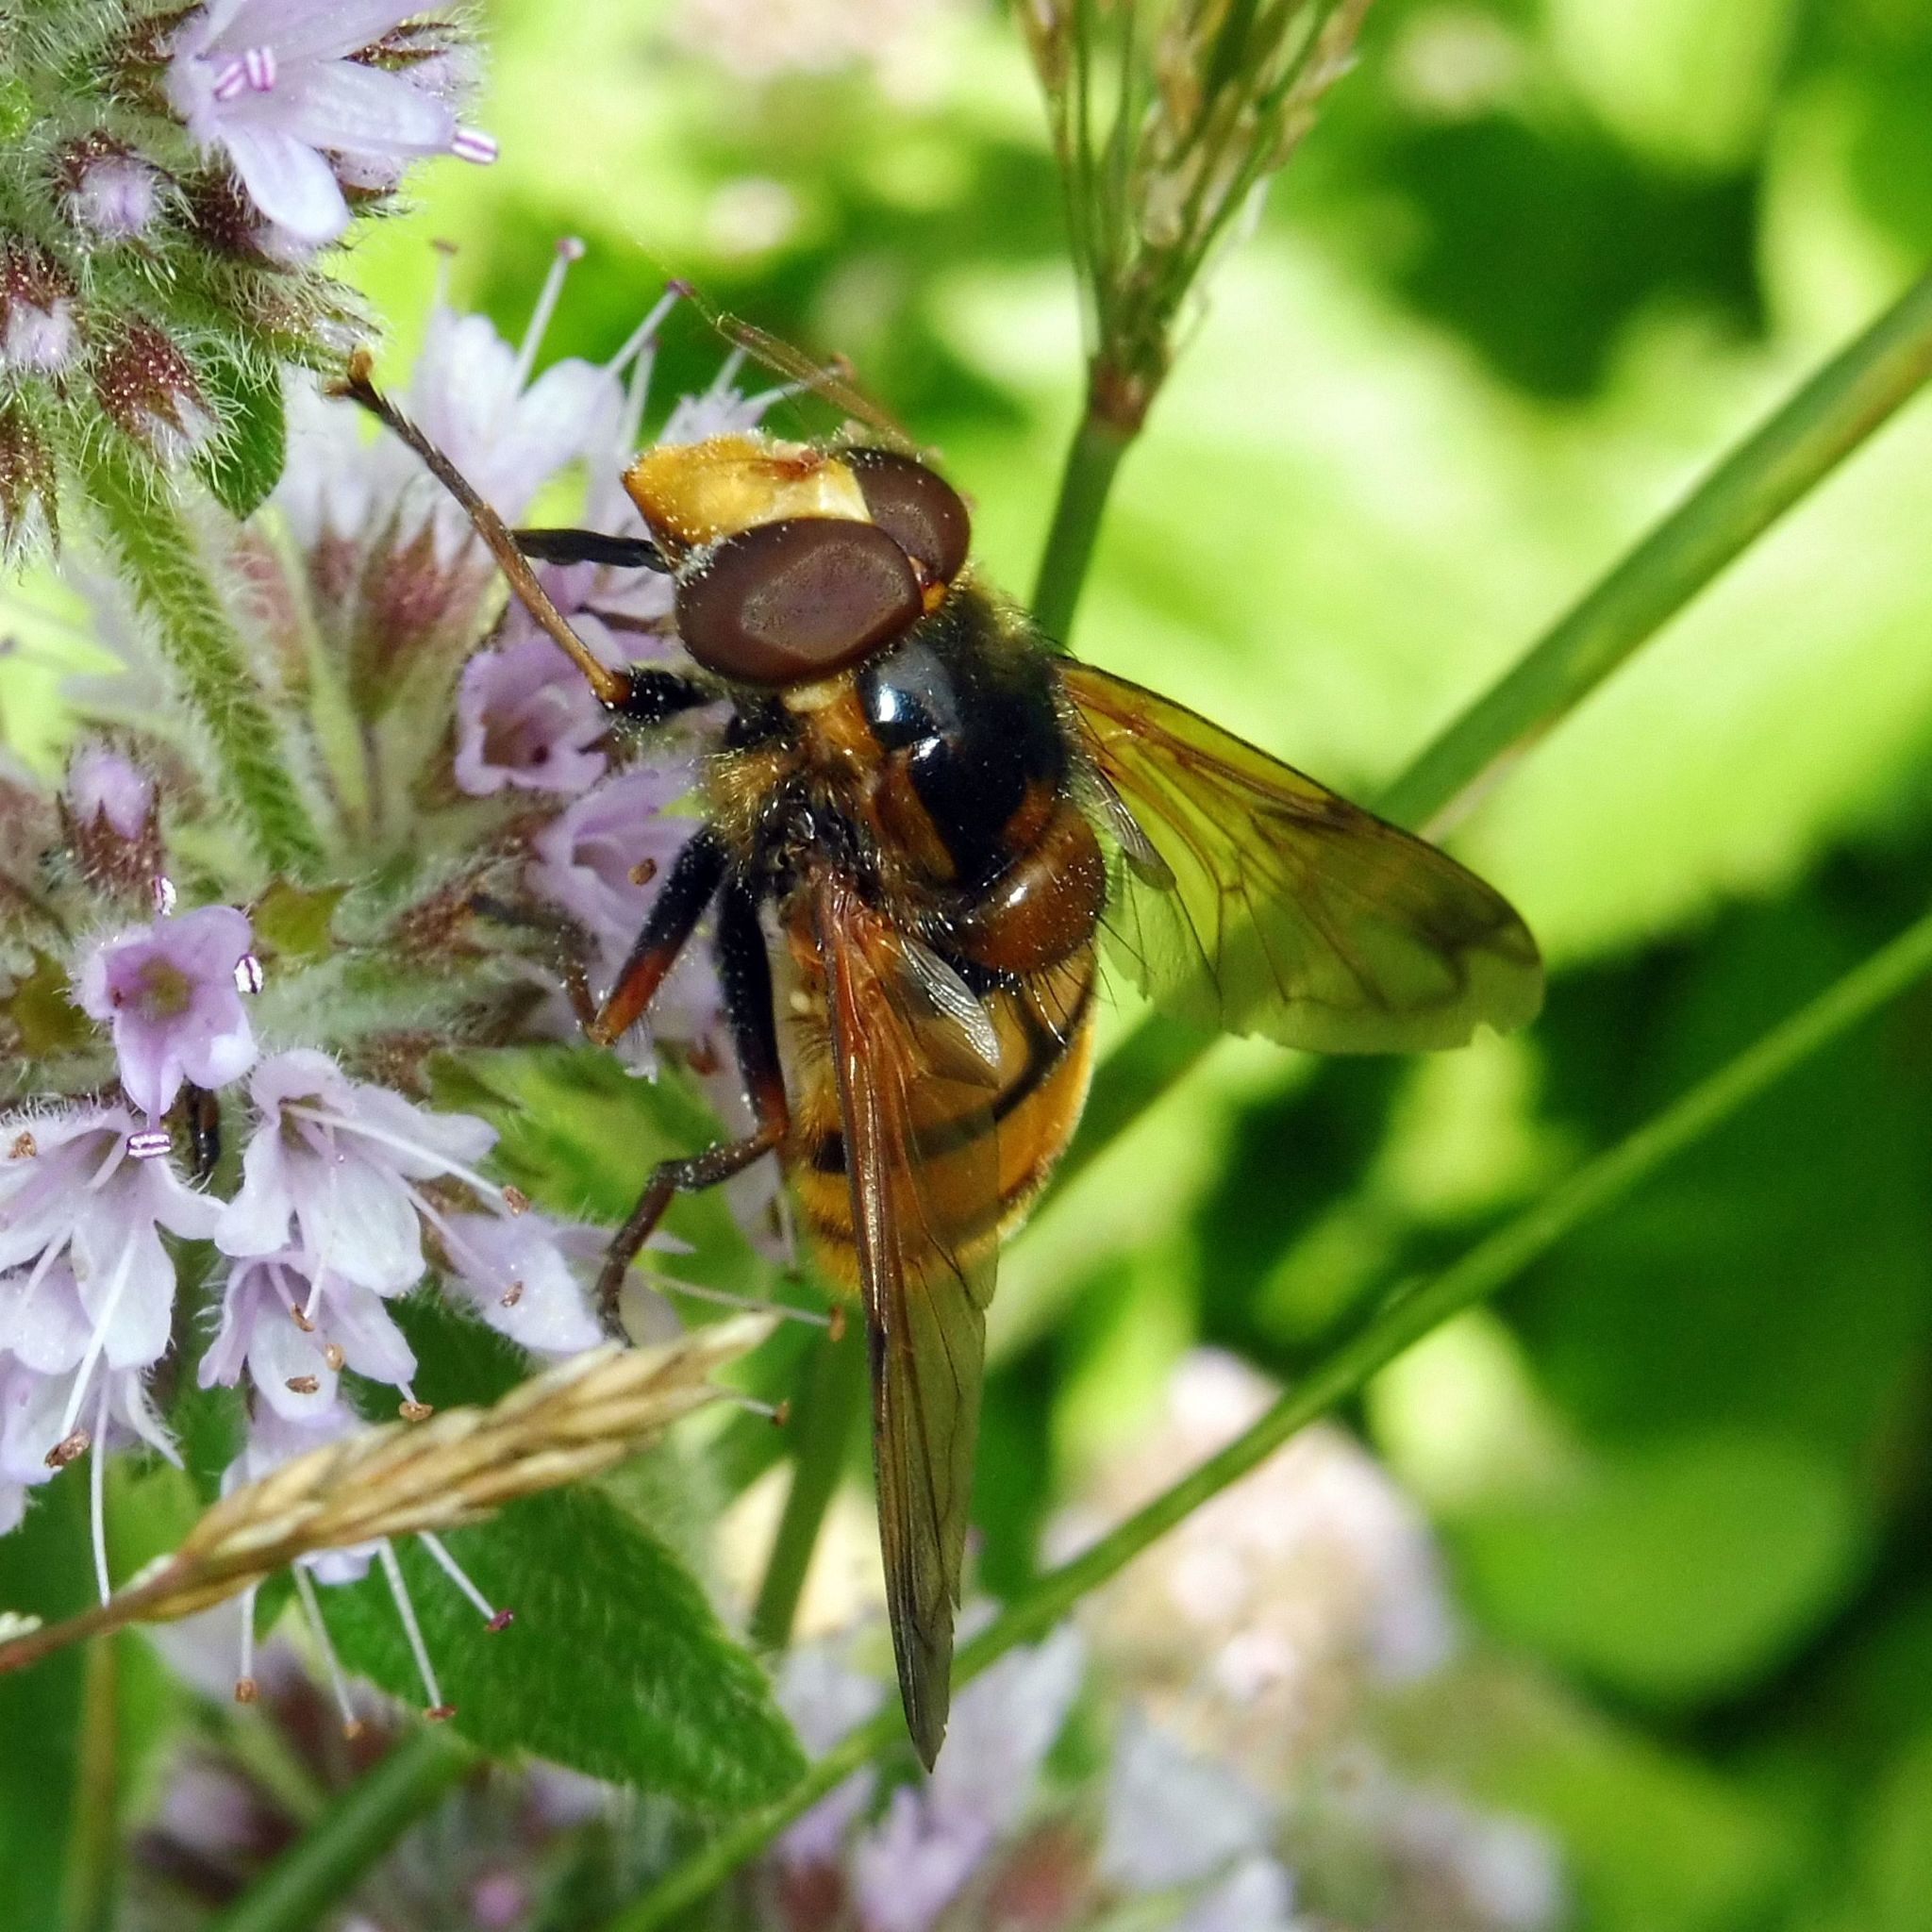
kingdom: Animalia
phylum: Arthropoda
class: Insecta
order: Diptera
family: Syrphidae
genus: Volucella
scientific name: Volucella inanis
